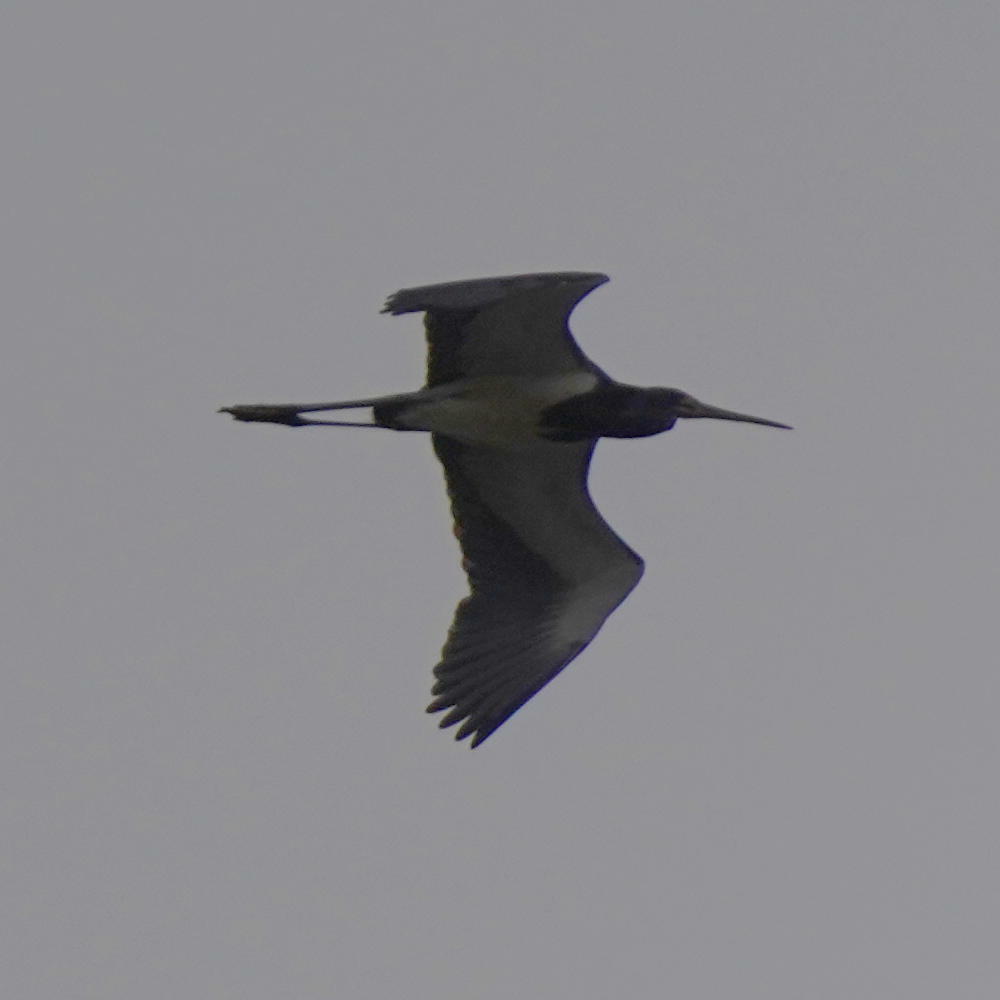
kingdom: Animalia
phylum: Chordata
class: Aves
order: Pelecaniformes
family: Ardeidae
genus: Egretta
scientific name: Egretta tricolor
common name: Tricolored heron
